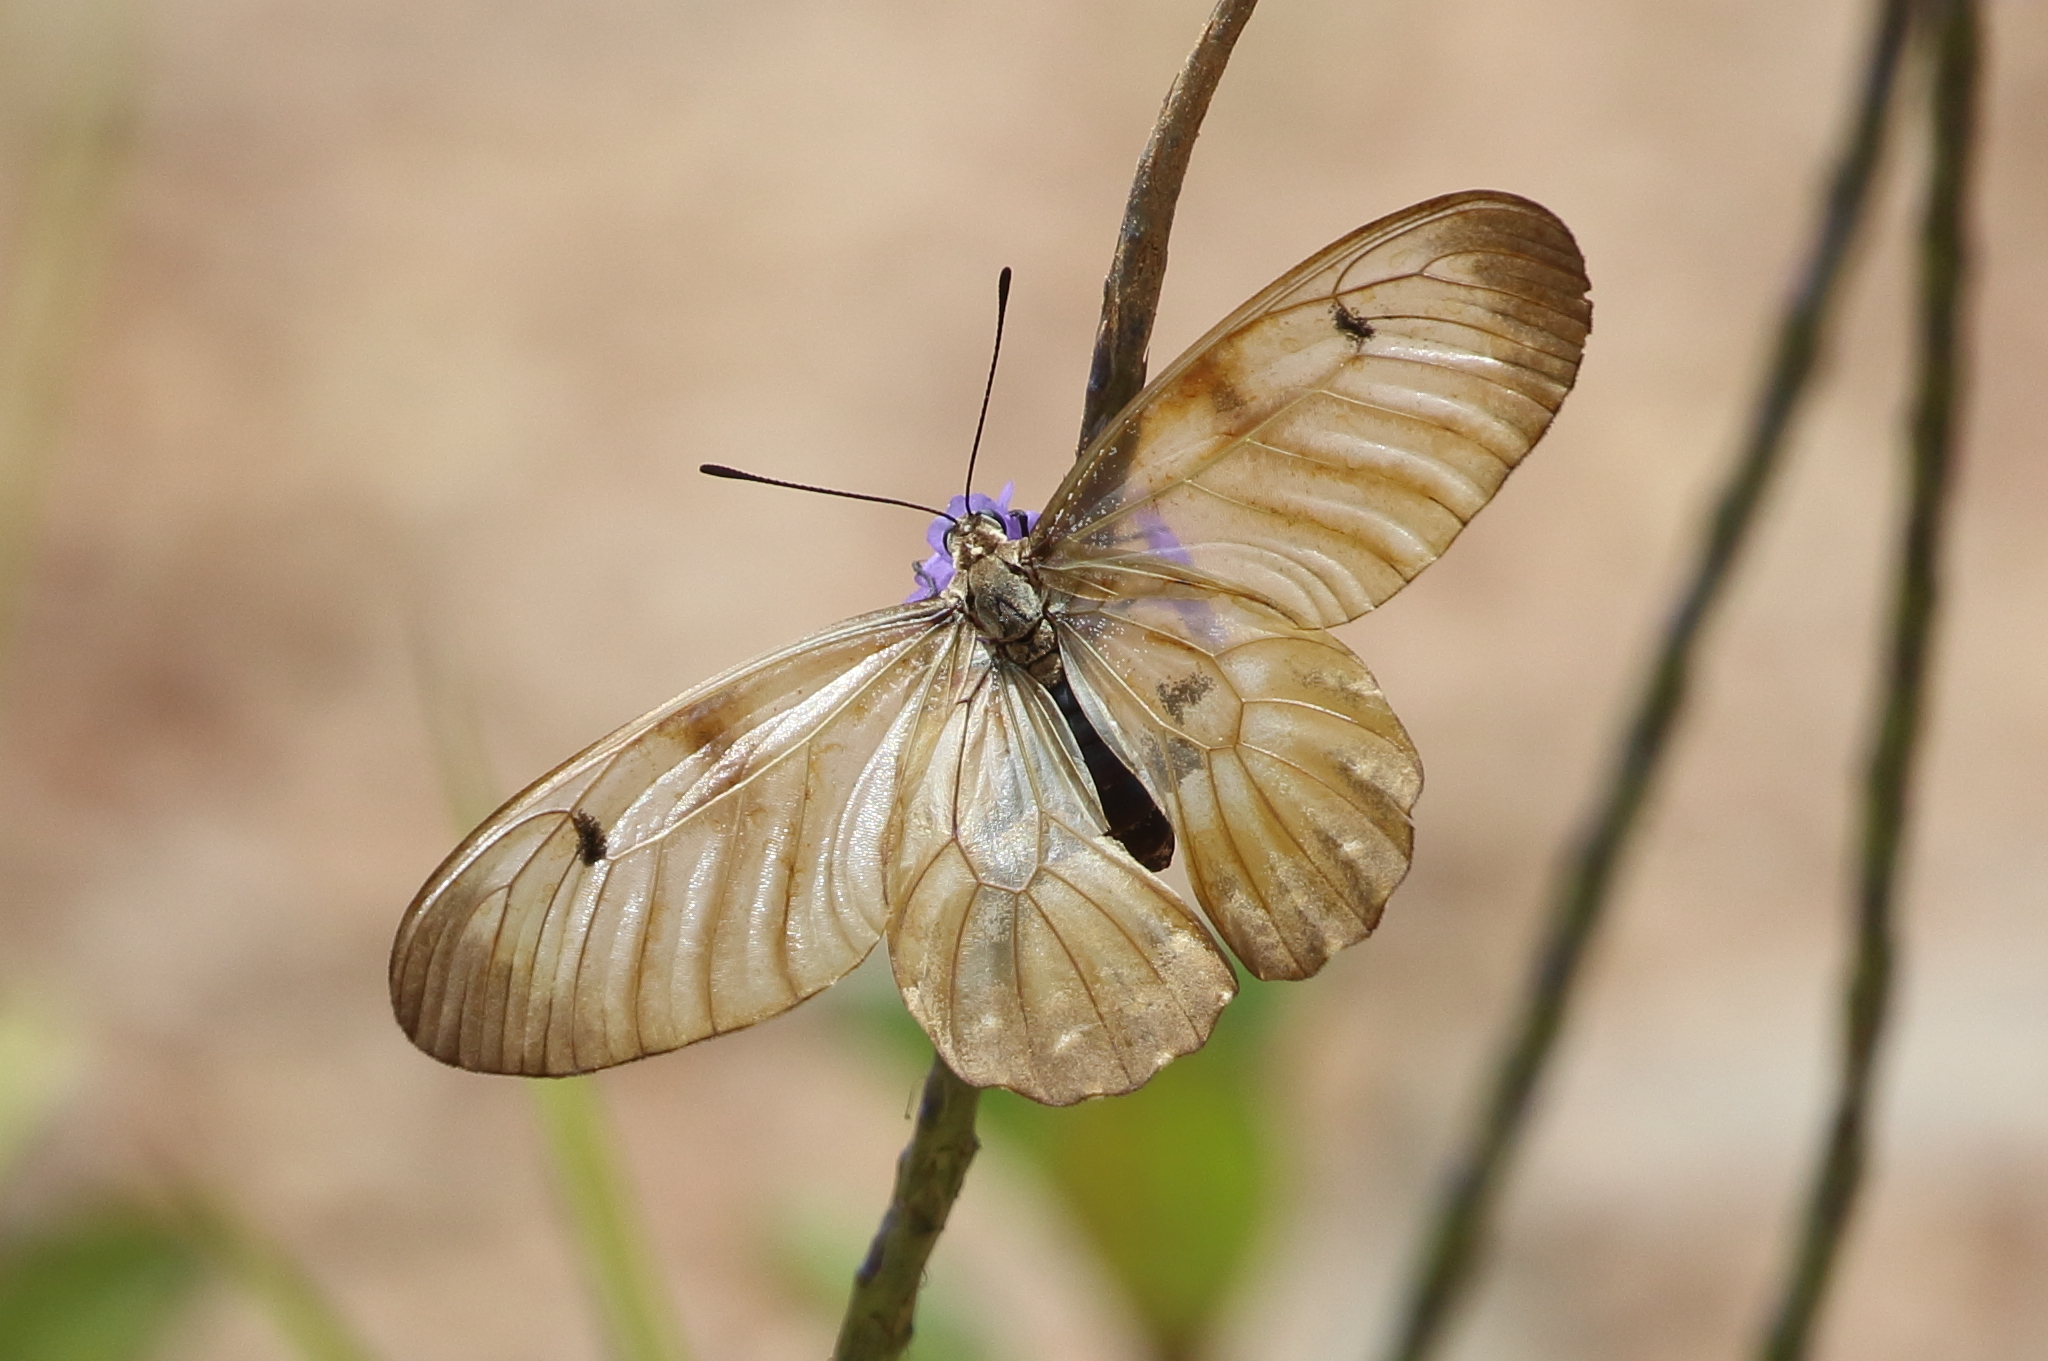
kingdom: Animalia
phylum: Arthropoda
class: Insecta
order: Lepidoptera
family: Papilionidae
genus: Cressida
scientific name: Cressida cressida
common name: Big greasy
